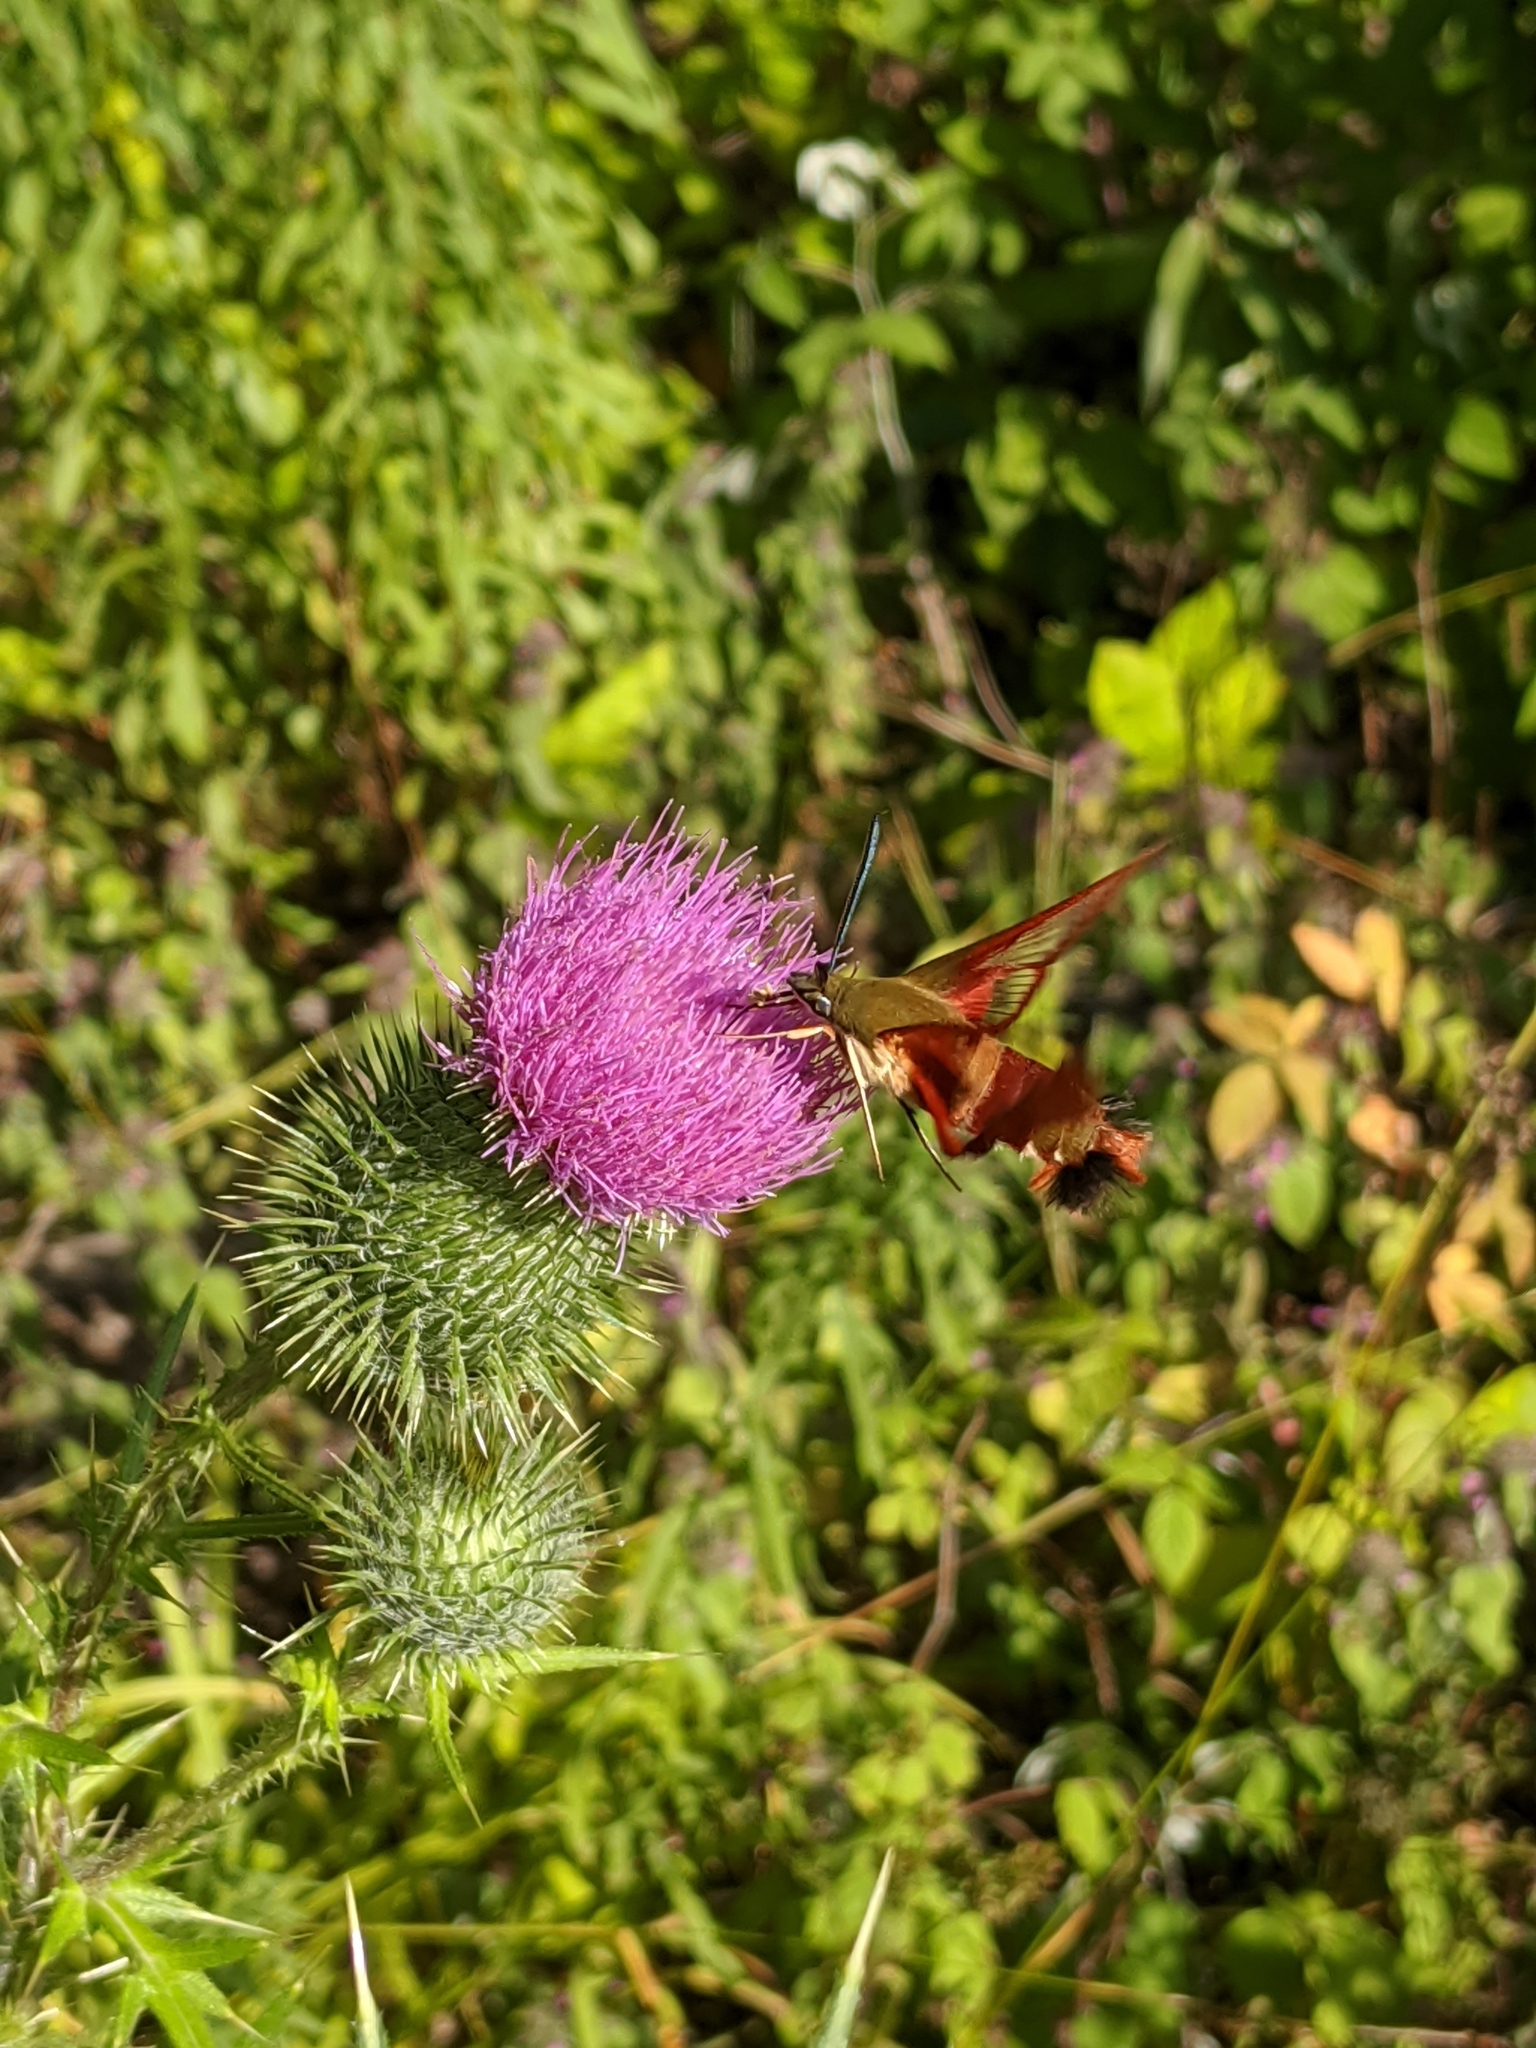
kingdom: Animalia
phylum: Arthropoda
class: Insecta
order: Lepidoptera
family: Sphingidae
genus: Hemaris
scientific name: Hemaris thysbe
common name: Common clear-wing
